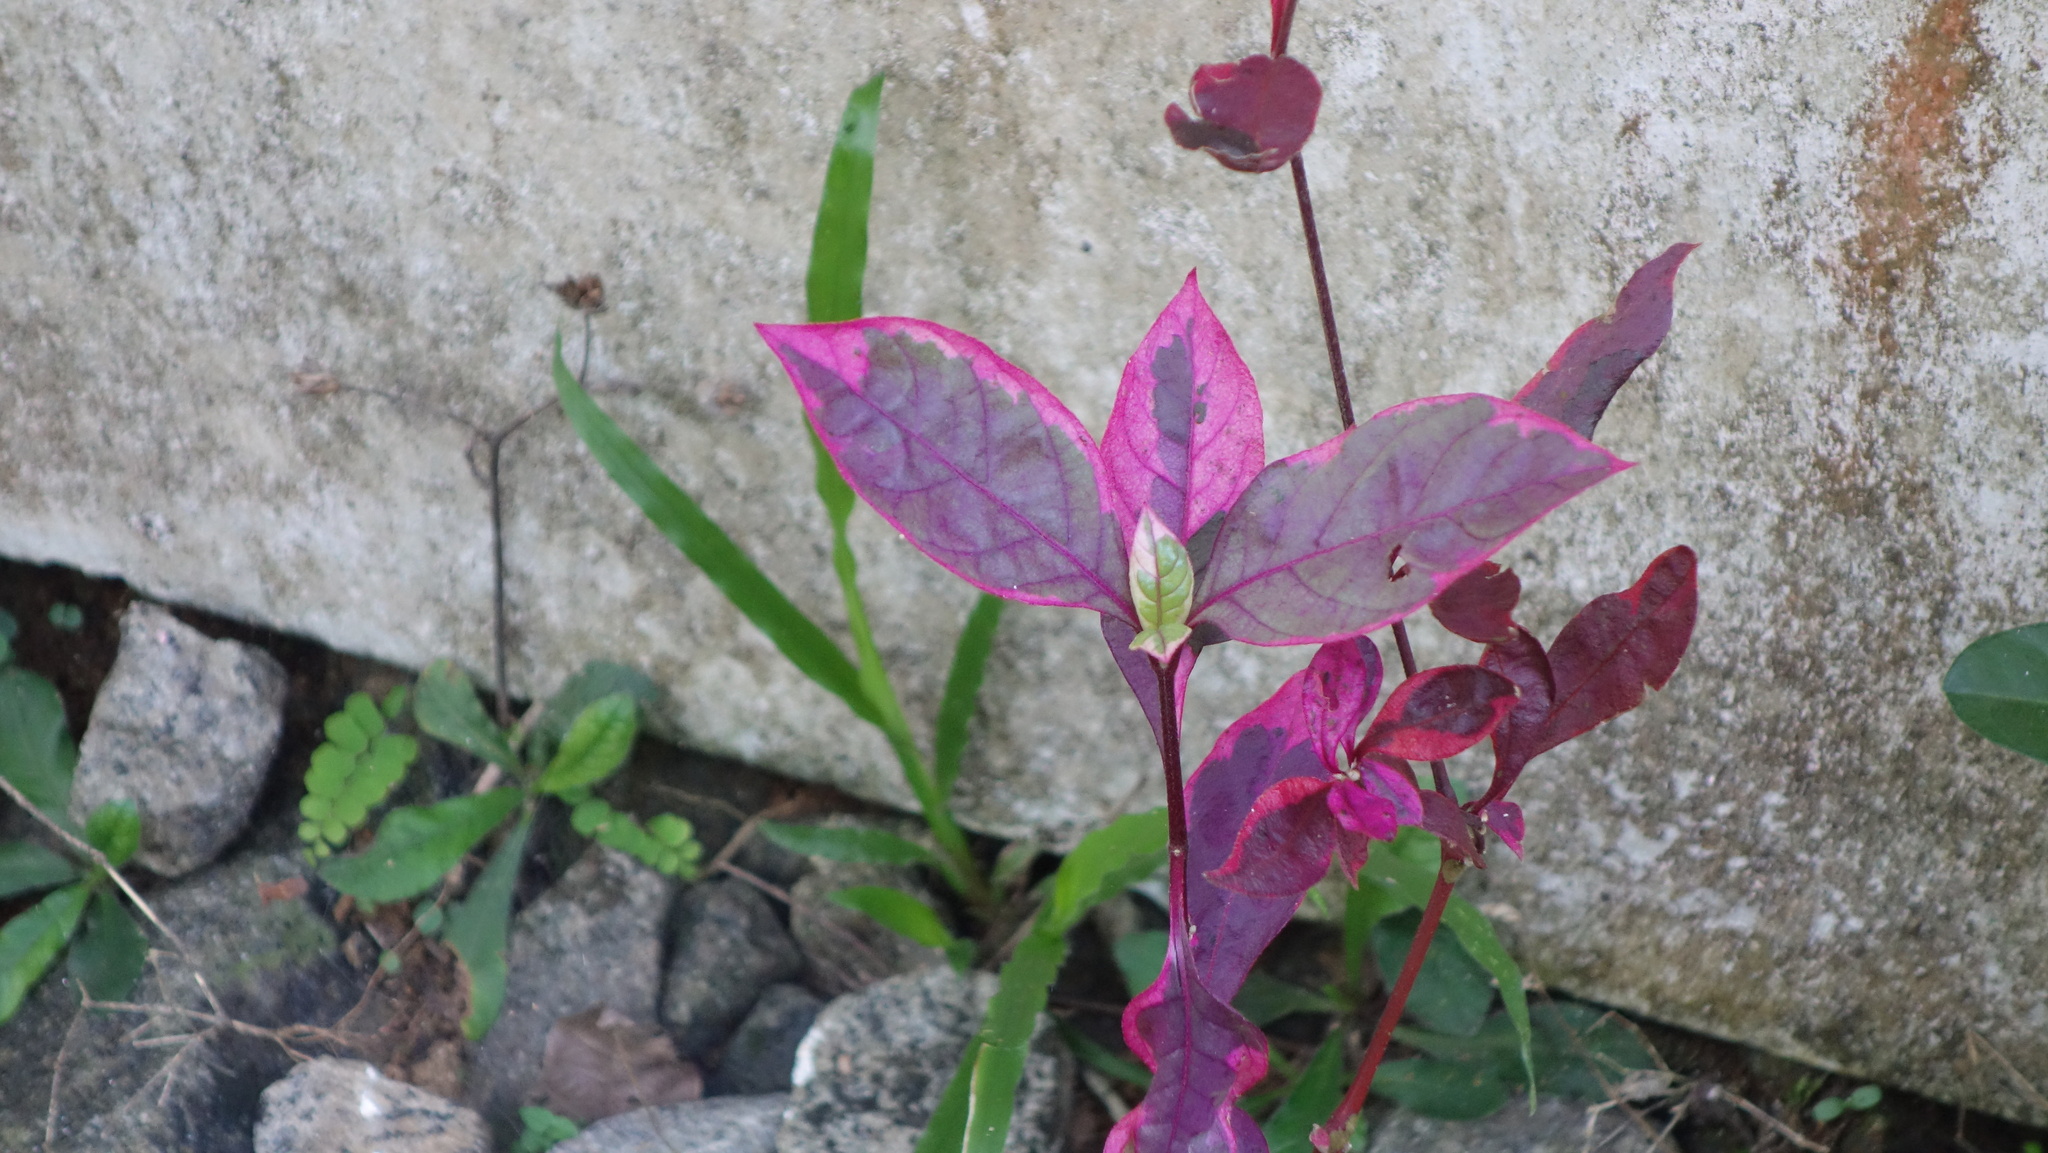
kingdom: Plantae
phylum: Tracheophyta
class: Magnoliopsida
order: Caryophyllales
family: Amaranthaceae
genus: Alternanthera
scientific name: Alternanthera brasiliana
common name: Brazilian joyweed
